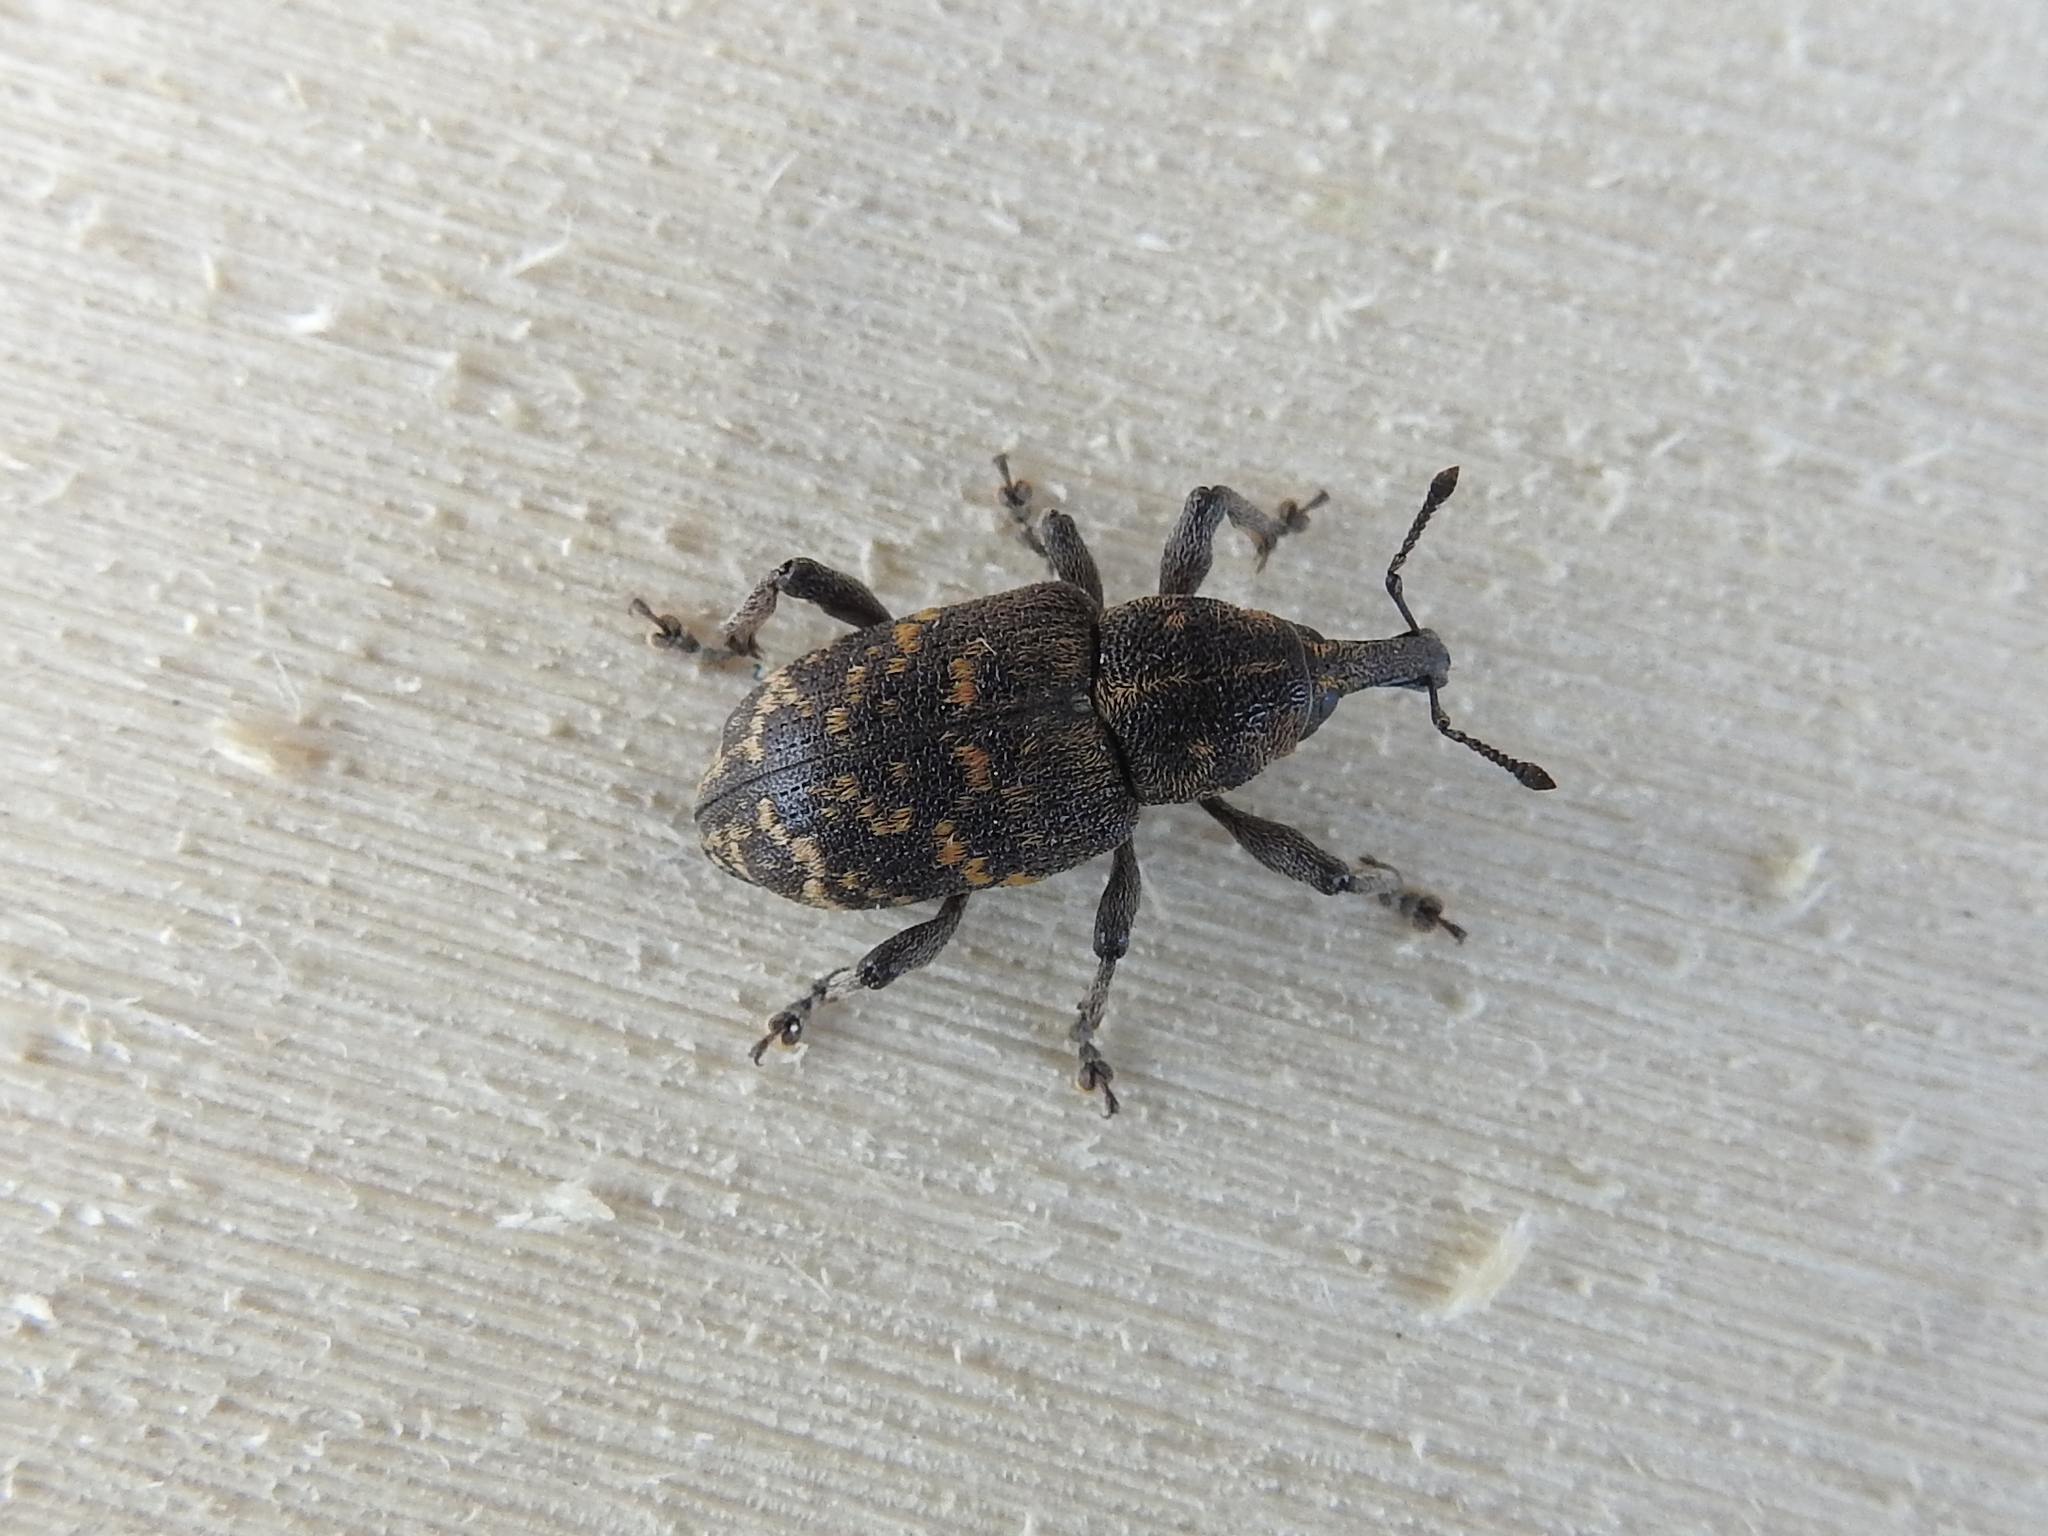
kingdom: Animalia
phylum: Arthropoda
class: Insecta
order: Coleoptera
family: Curculionidae
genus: Hylobius
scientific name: Hylobius abietis
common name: Large pine weevil
